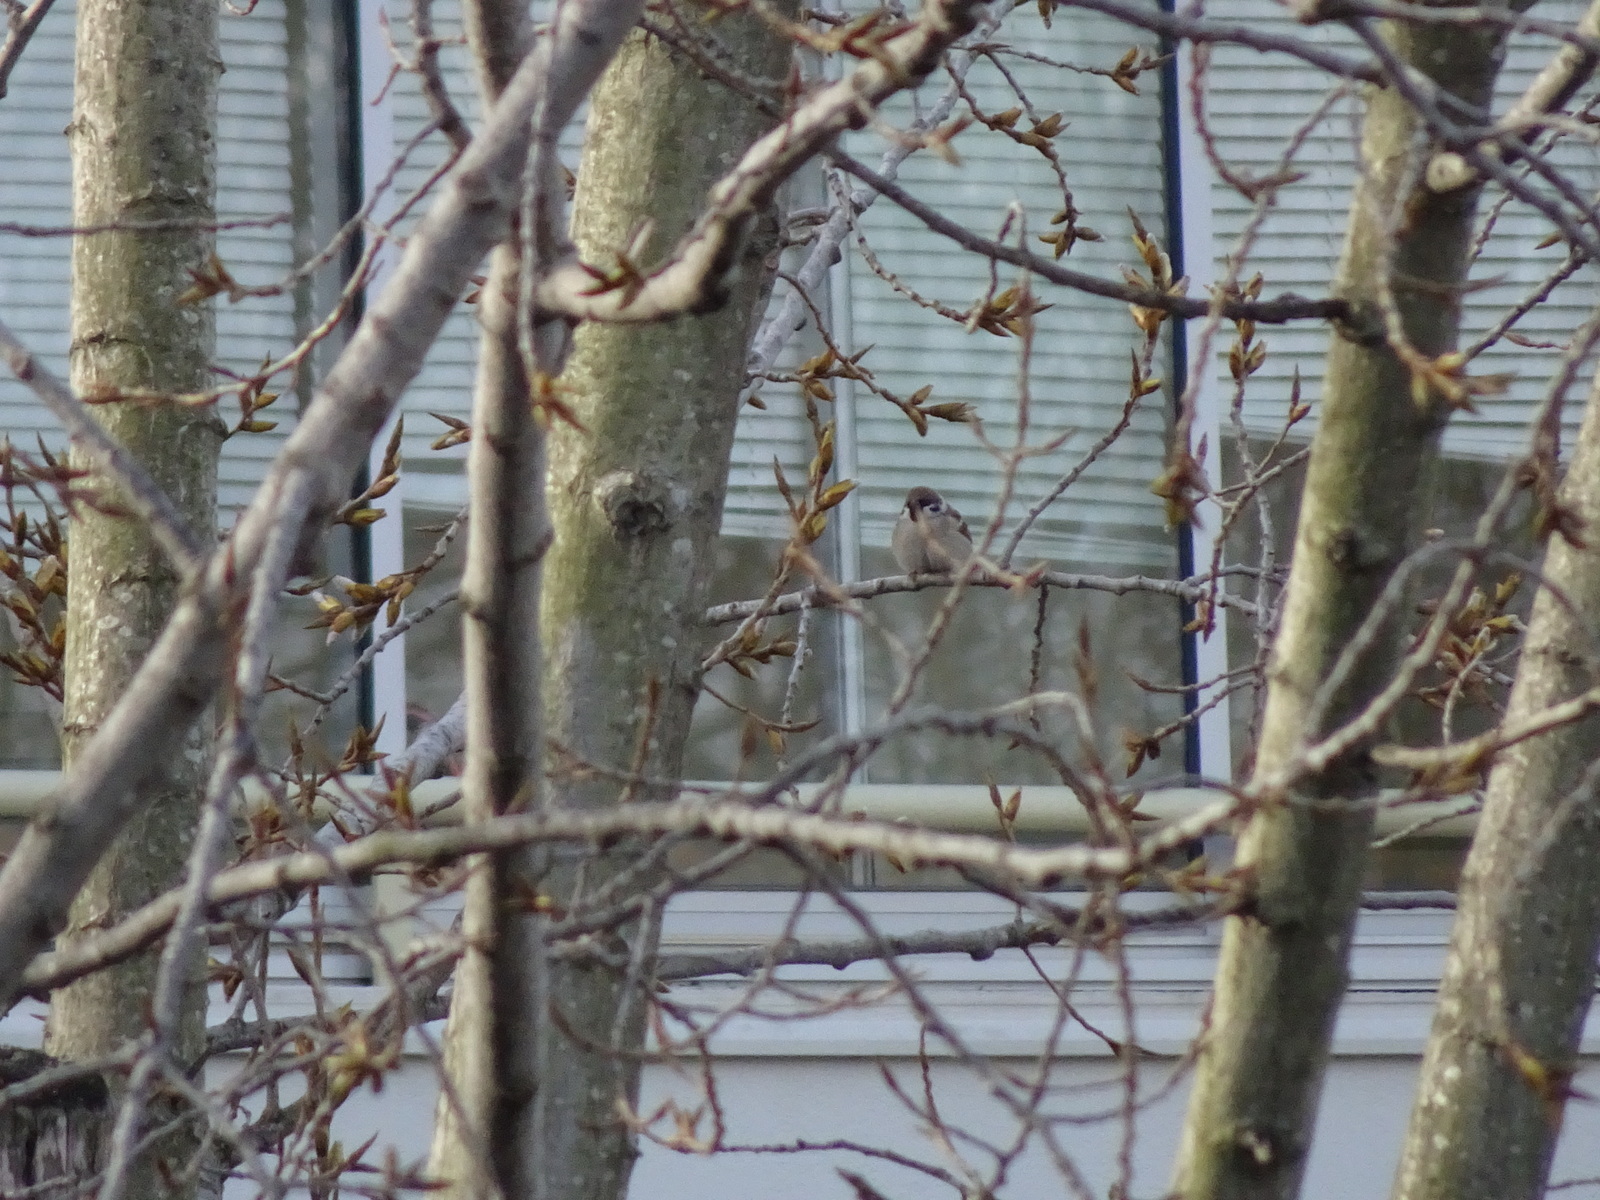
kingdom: Animalia
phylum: Chordata
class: Aves
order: Passeriformes
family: Passeridae
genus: Passer
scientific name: Passer montanus
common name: Eurasian tree sparrow
